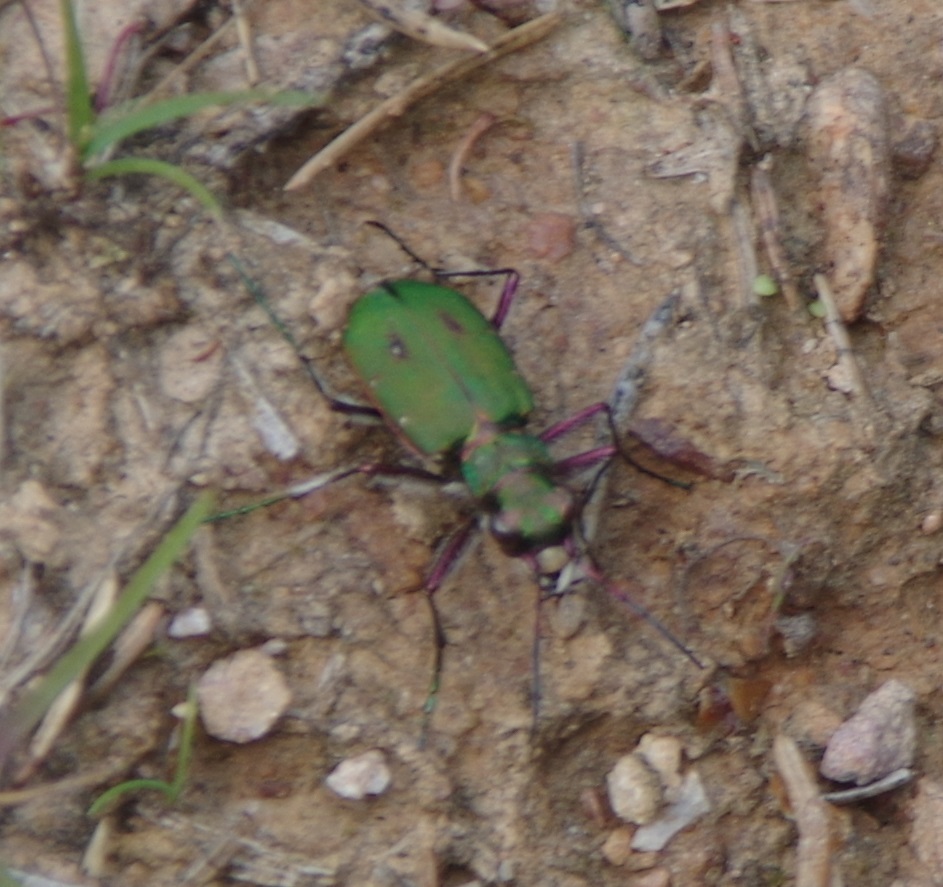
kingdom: Animalia
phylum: Arthropoda
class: Insecta
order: Coleoptera
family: Carabidae
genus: Cicindela
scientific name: Cicindela campestris
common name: Common tiger beetle
